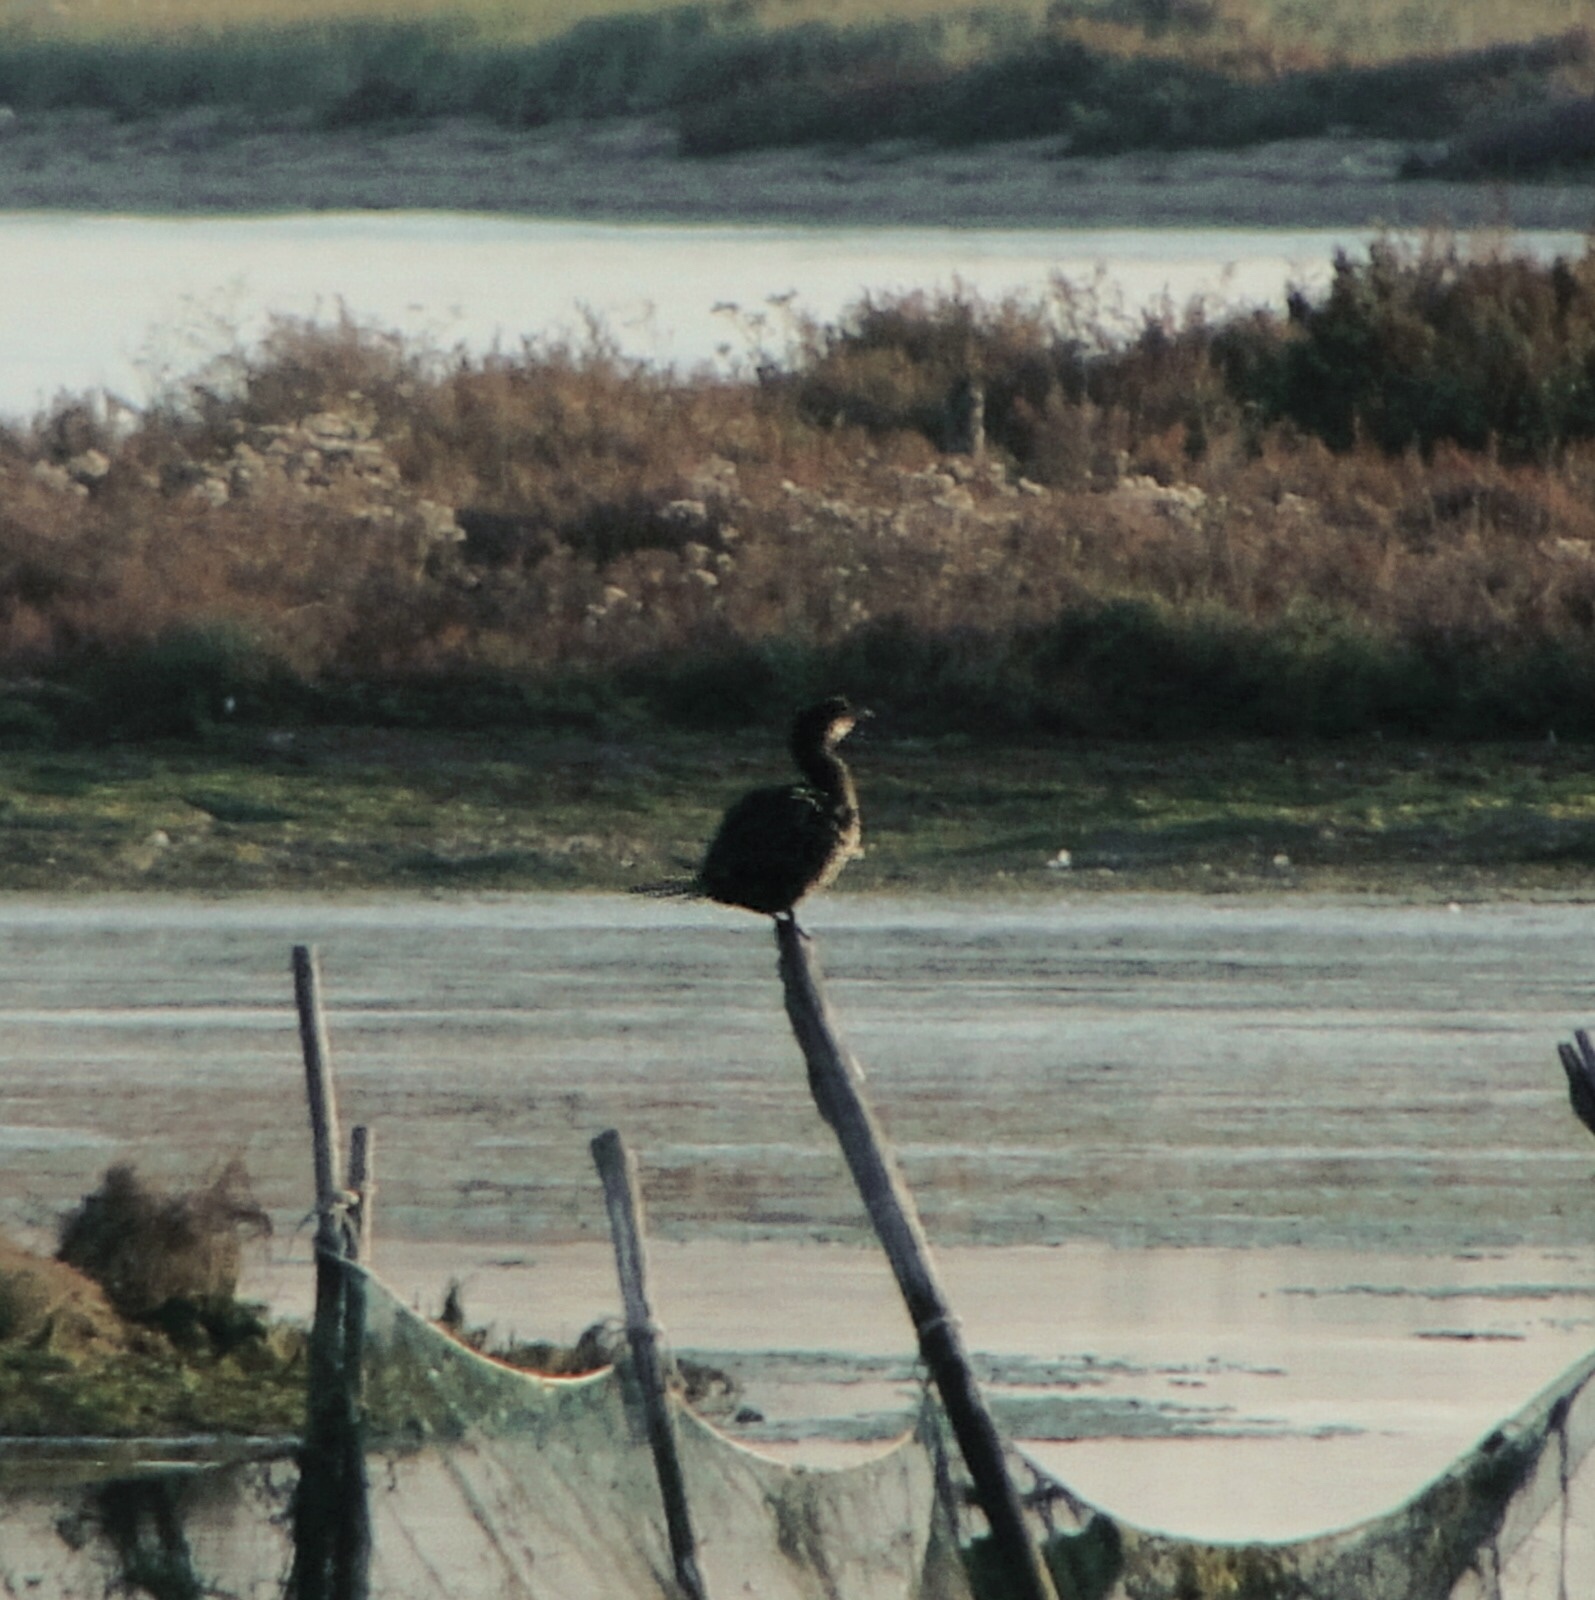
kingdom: Animalia
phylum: Chordata
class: Aves
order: Suliformes
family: Phalacrocoracidae
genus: Microcarbo
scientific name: Microcarbo pygmaeus
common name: Pygmy cormorant
